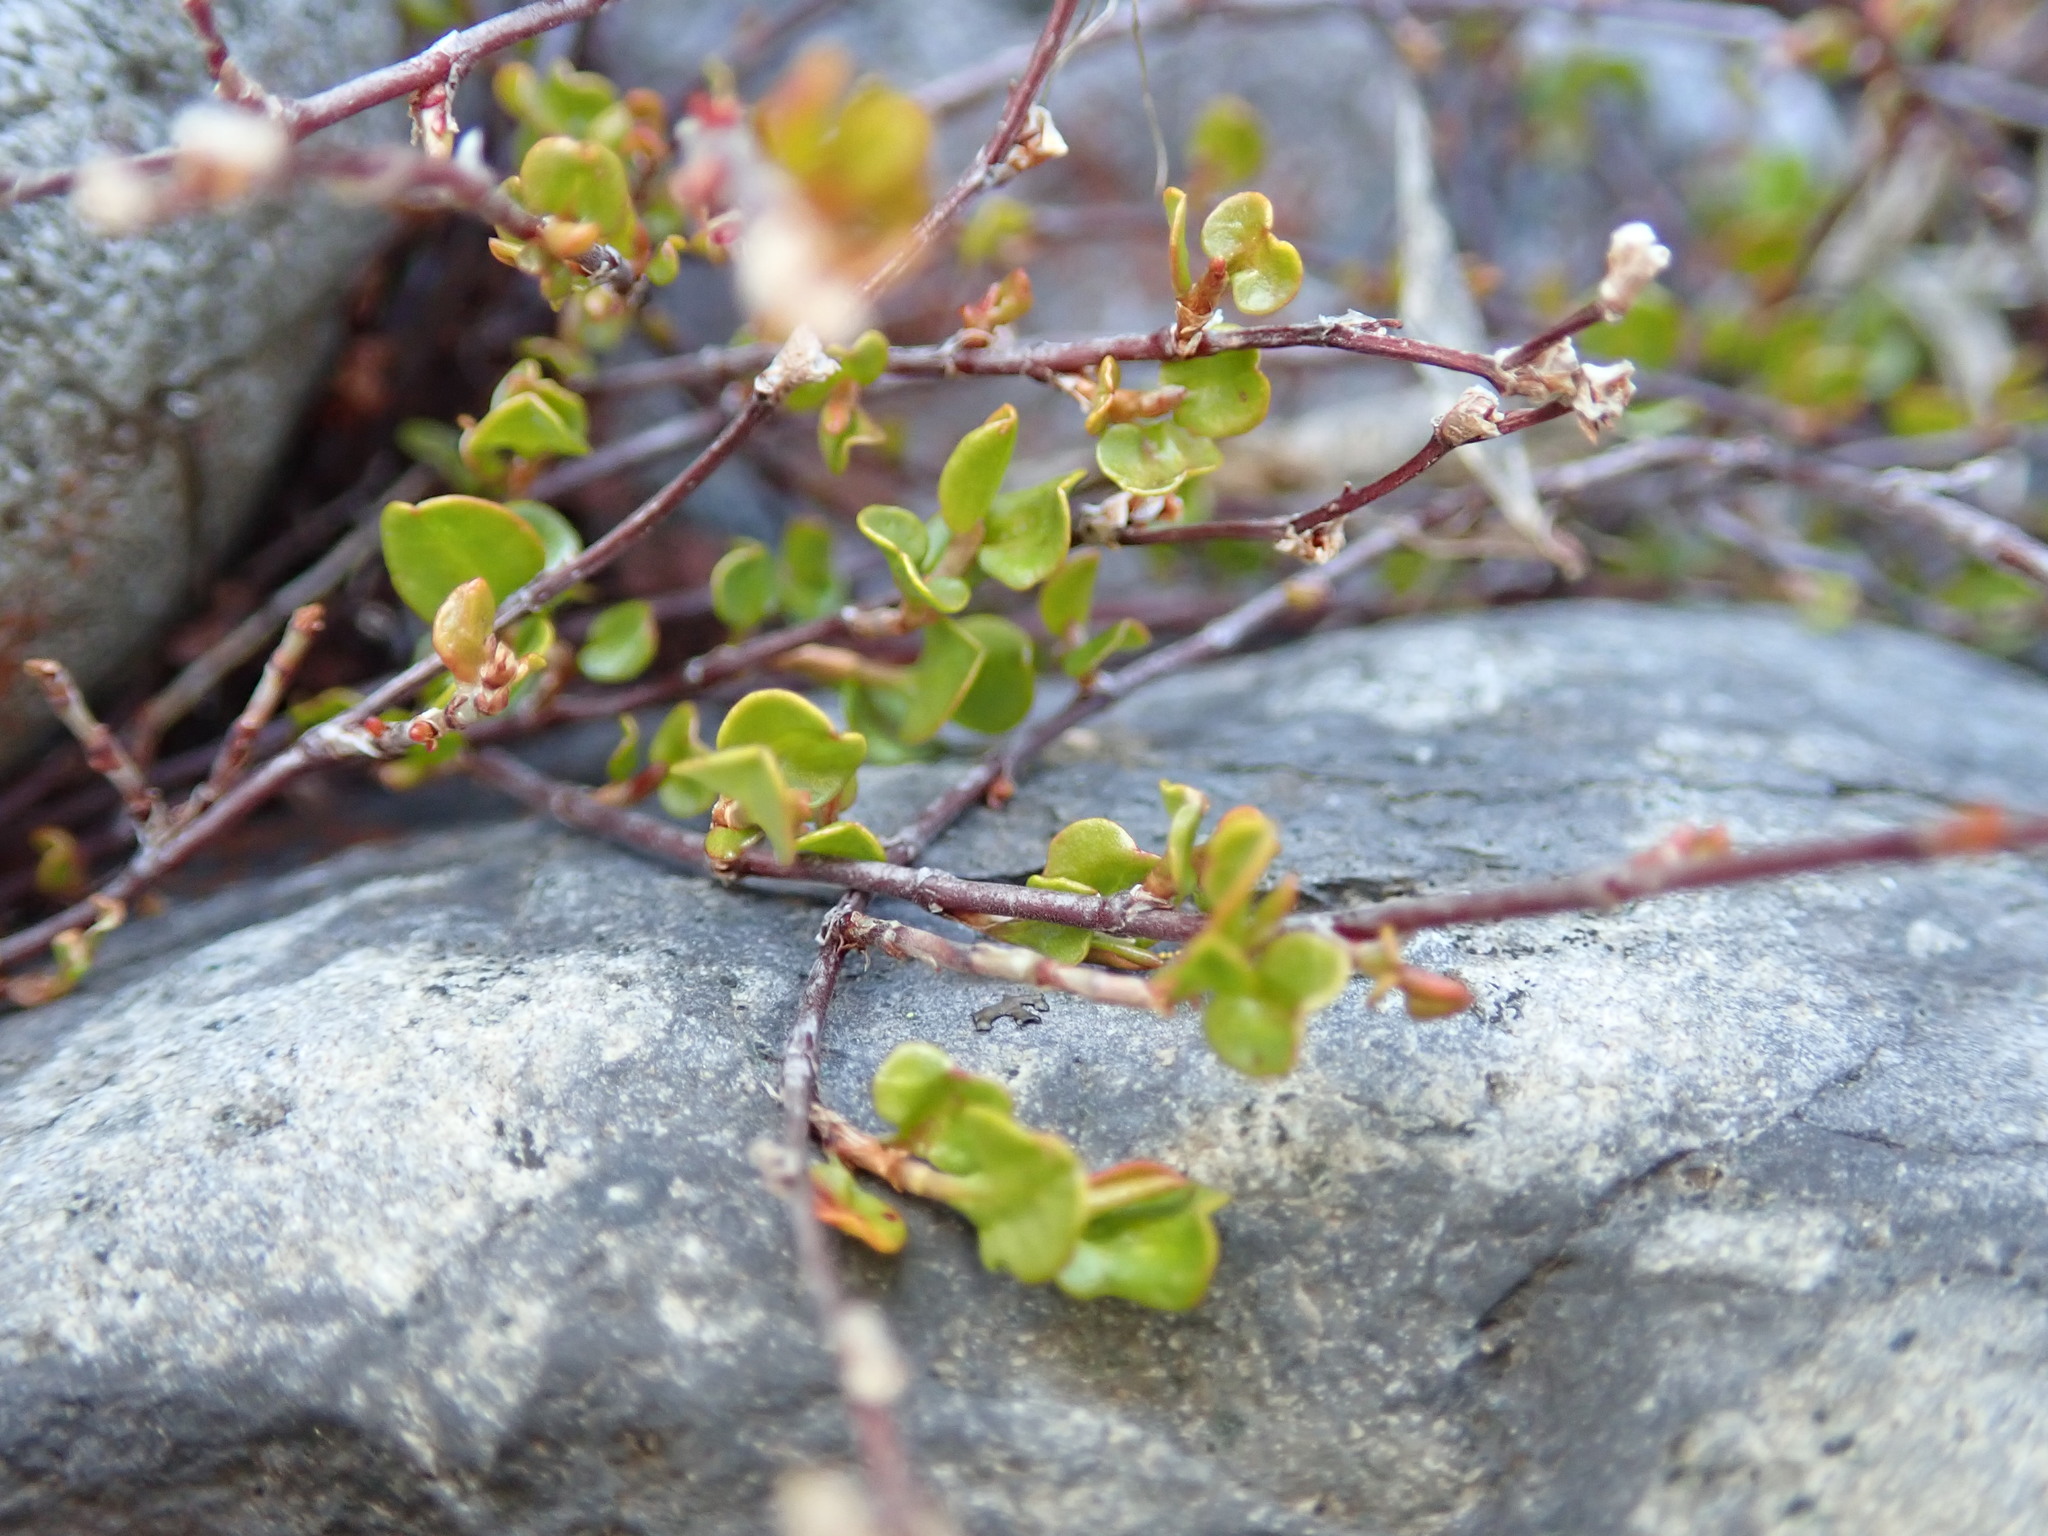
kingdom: Plantae
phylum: Tracheophyta
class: Magnoliopsida
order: Caryophyllales
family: Polygonaceae
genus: Muehlenbeckia
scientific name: Muehlenbeckia axillaris
